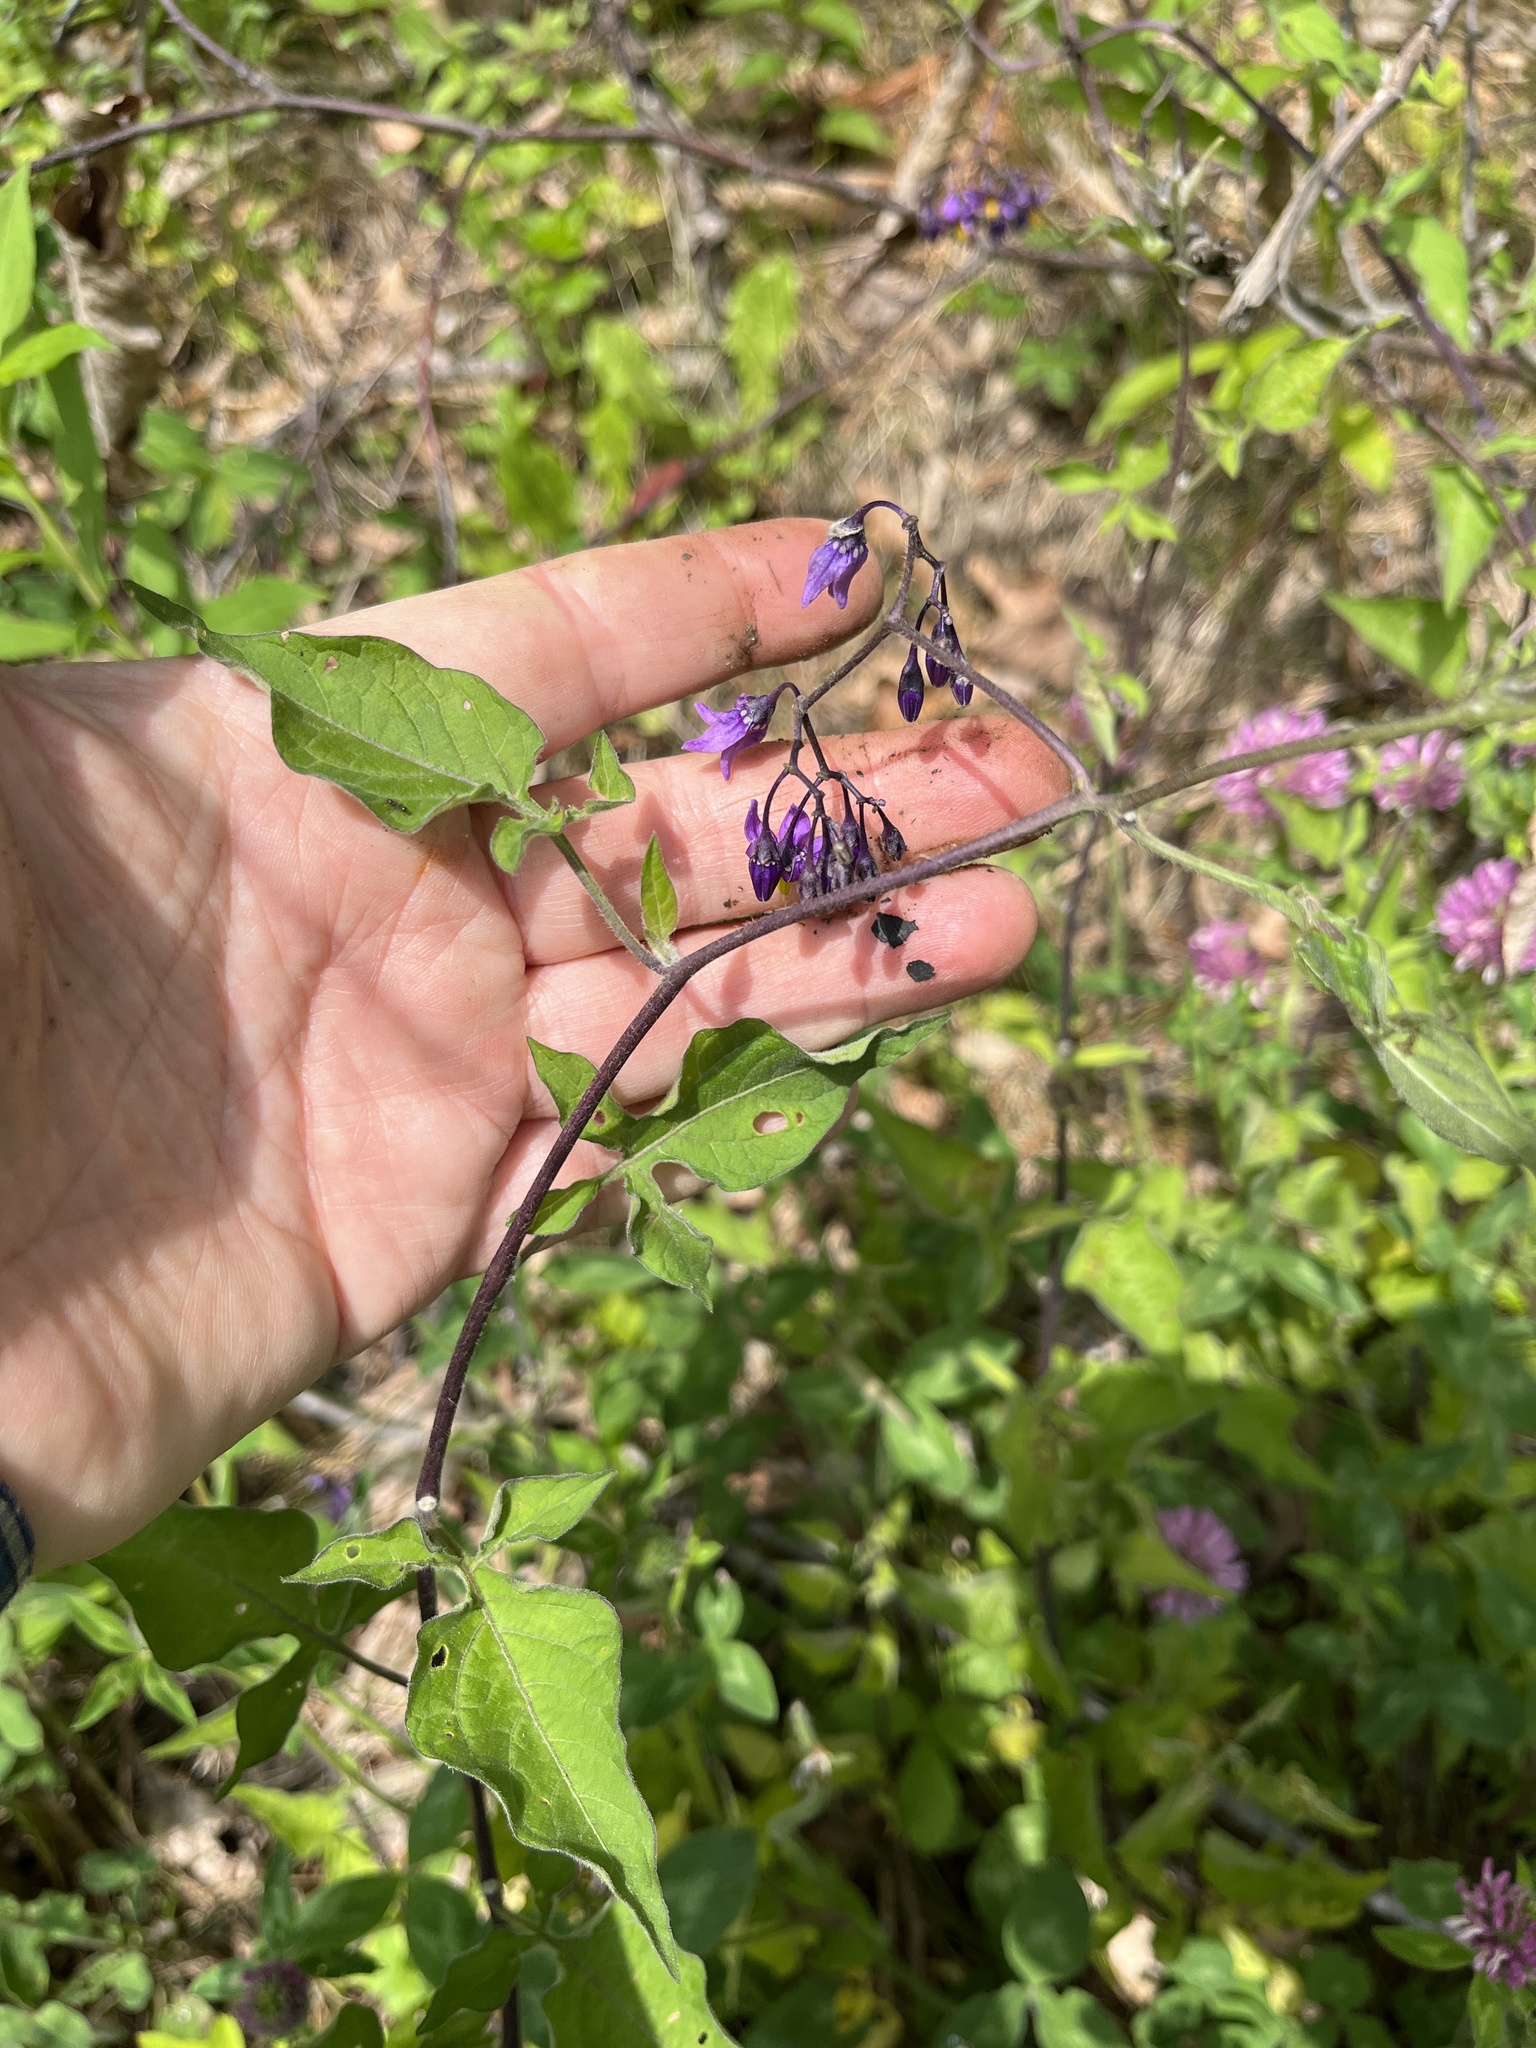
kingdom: Plantae
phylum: Tracheophyta
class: Magnoliopsida
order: Solanales
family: Solanaceae
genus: Solanum
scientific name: Solanum dulcamara
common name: Climbing nightshade
